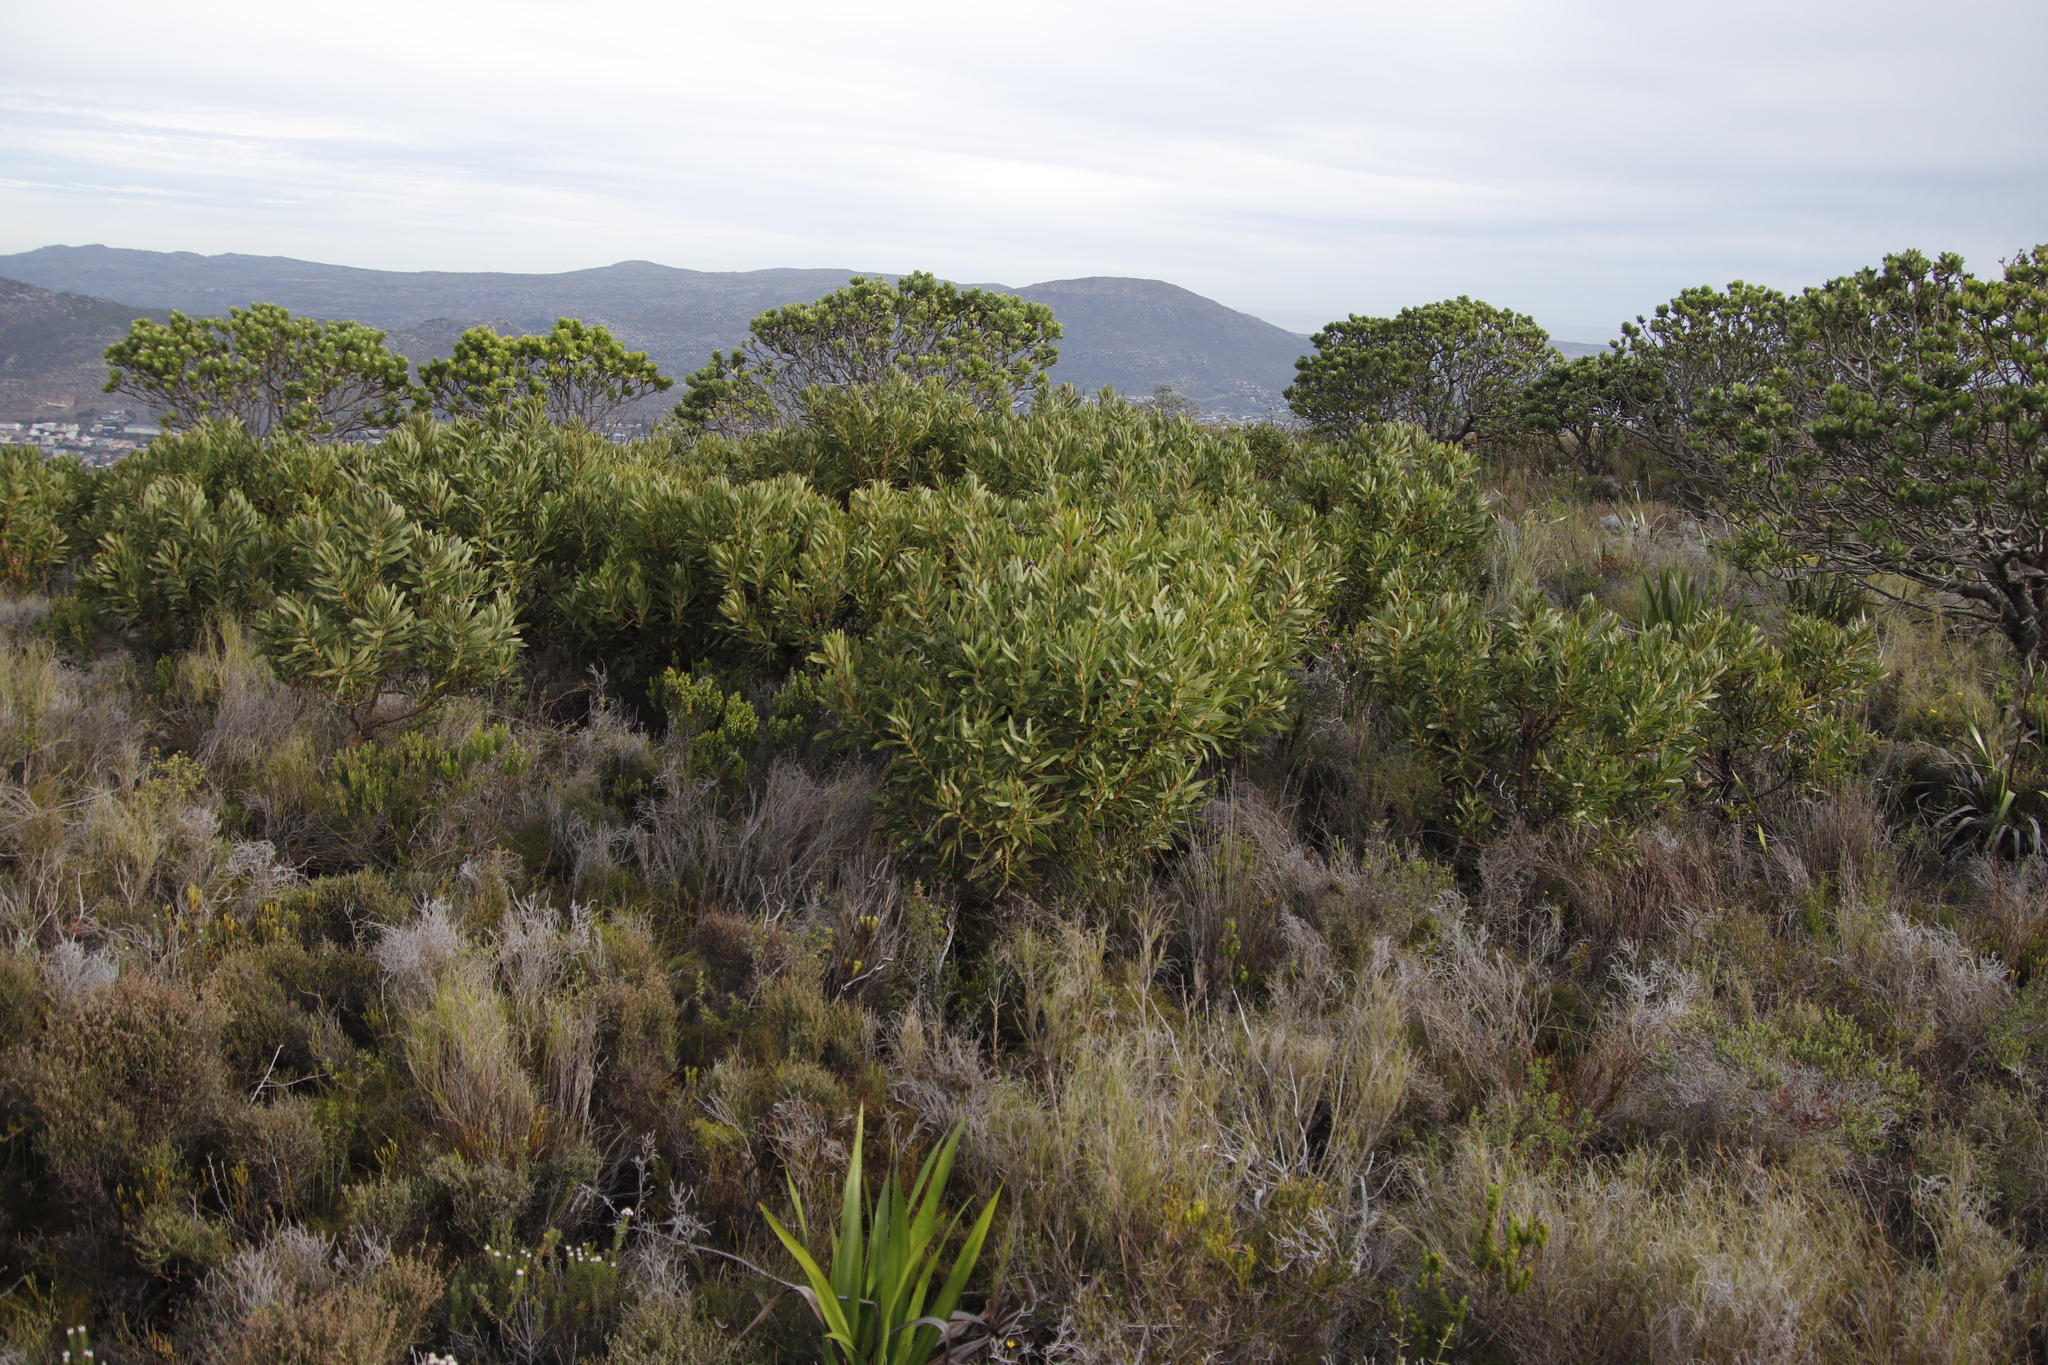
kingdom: Plantae
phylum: Tracheophyta
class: Magnoliopsida
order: Proteales
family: Proteaceae
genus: Protea
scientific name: Protea lepidocarpodendron
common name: Black-bearded protea
